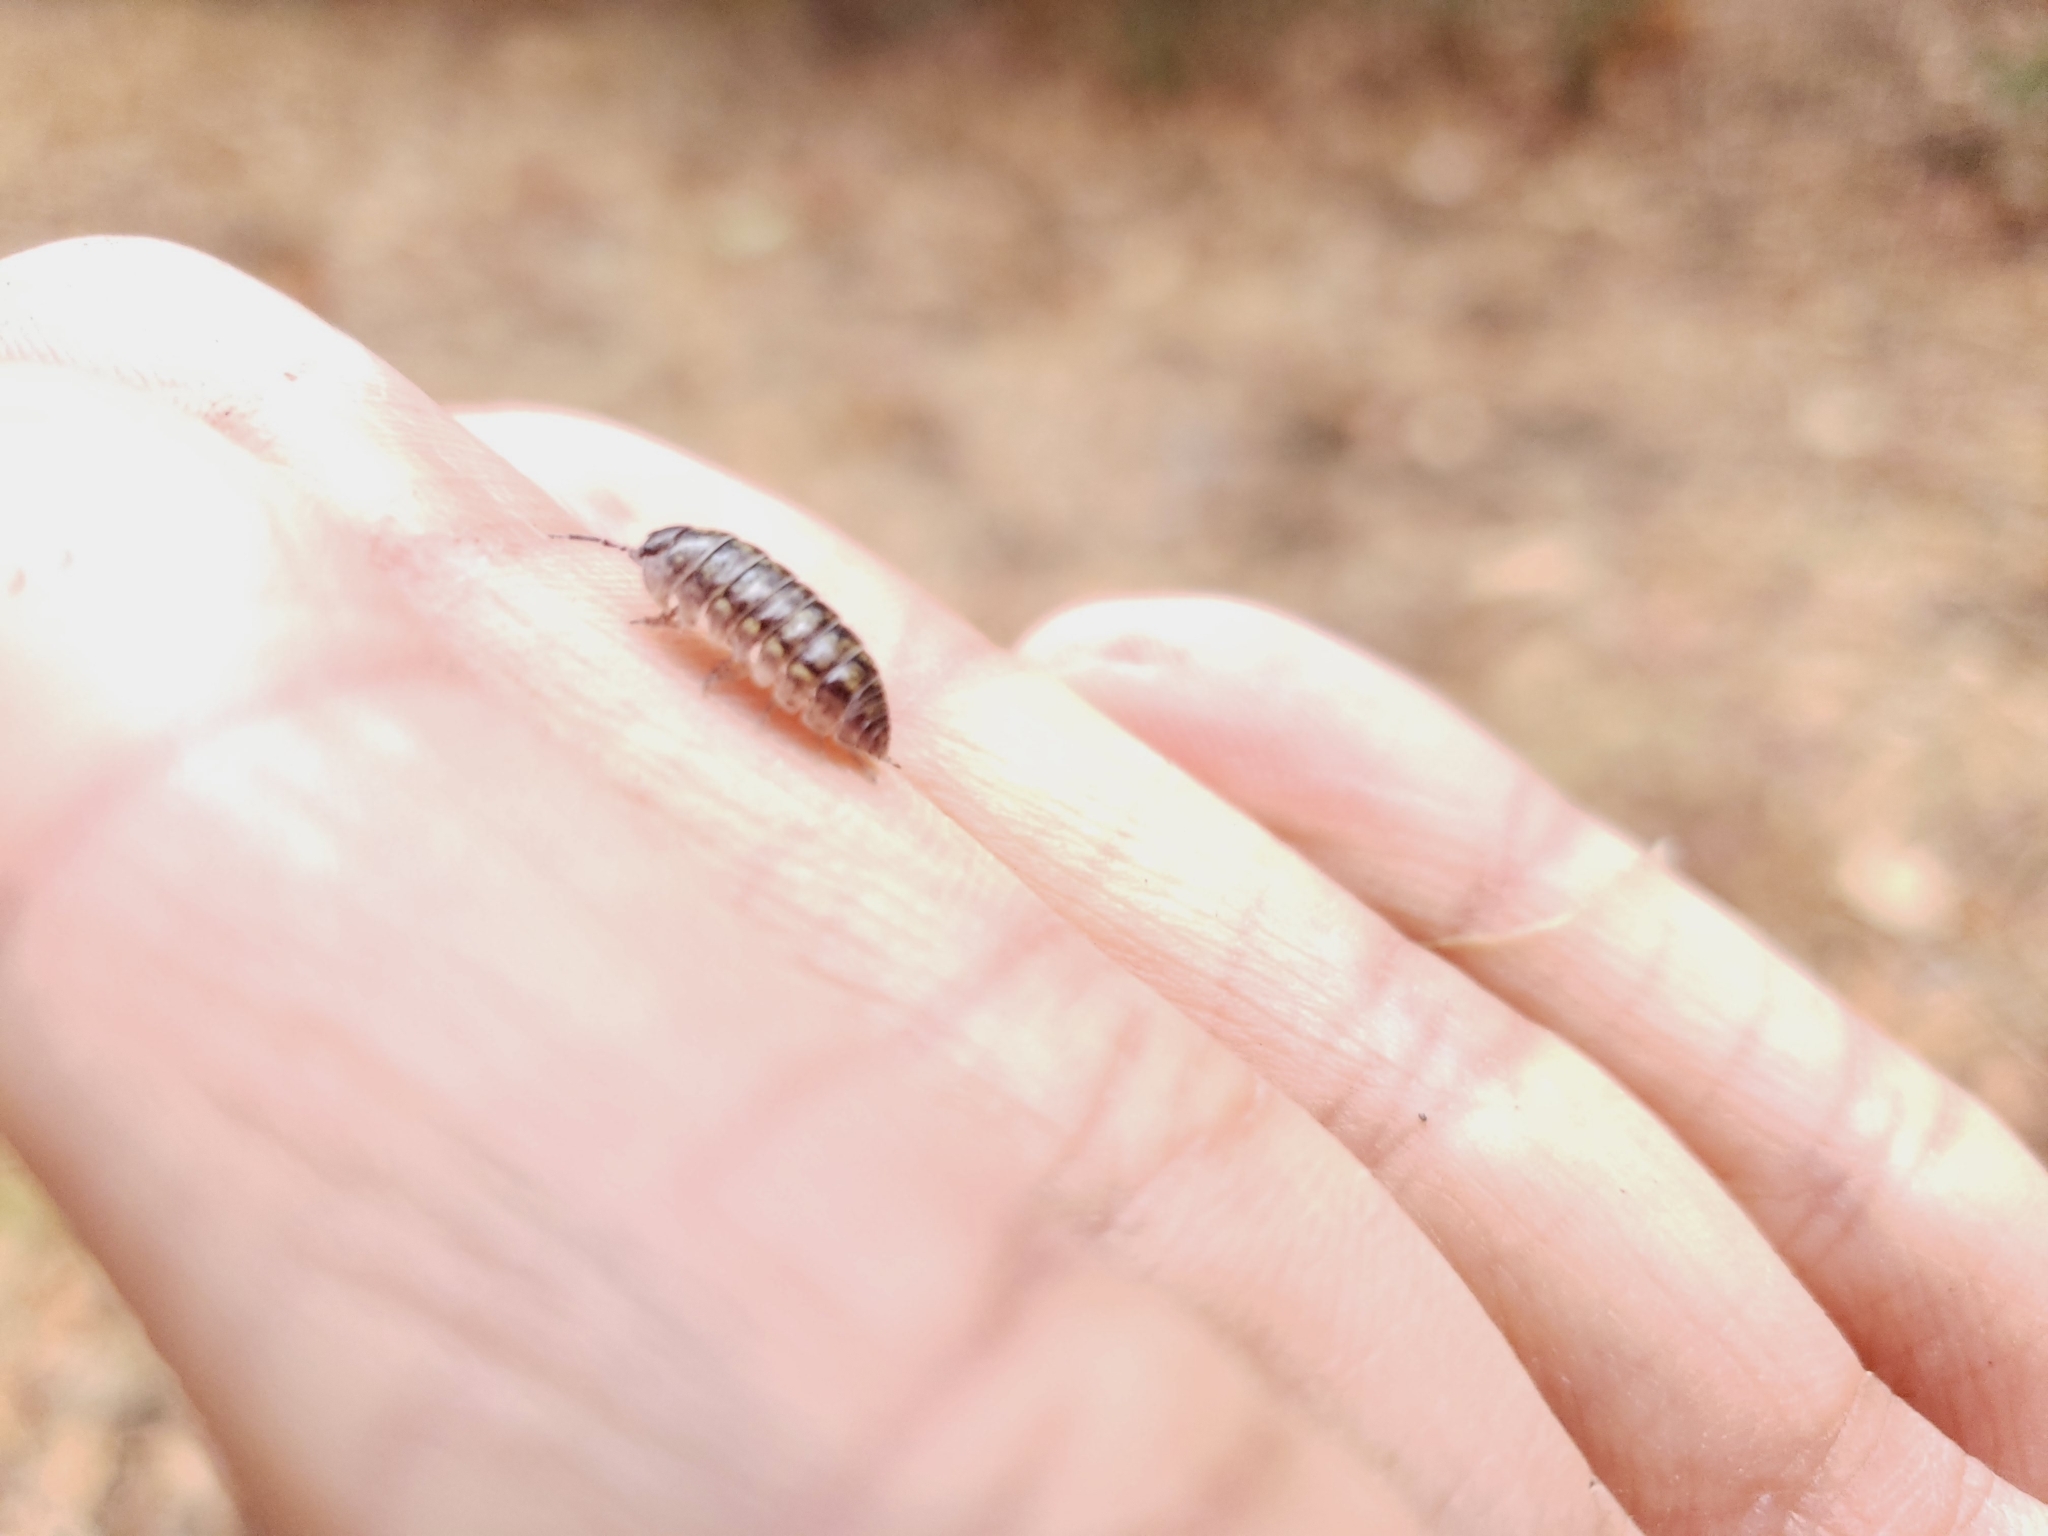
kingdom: Animalia
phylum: Arthropoda
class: Malacostraca
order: Isopoda
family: Armadillidiidae
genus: Armadillidium
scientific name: Armadillidium vulgare
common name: Common pill woodlouse
